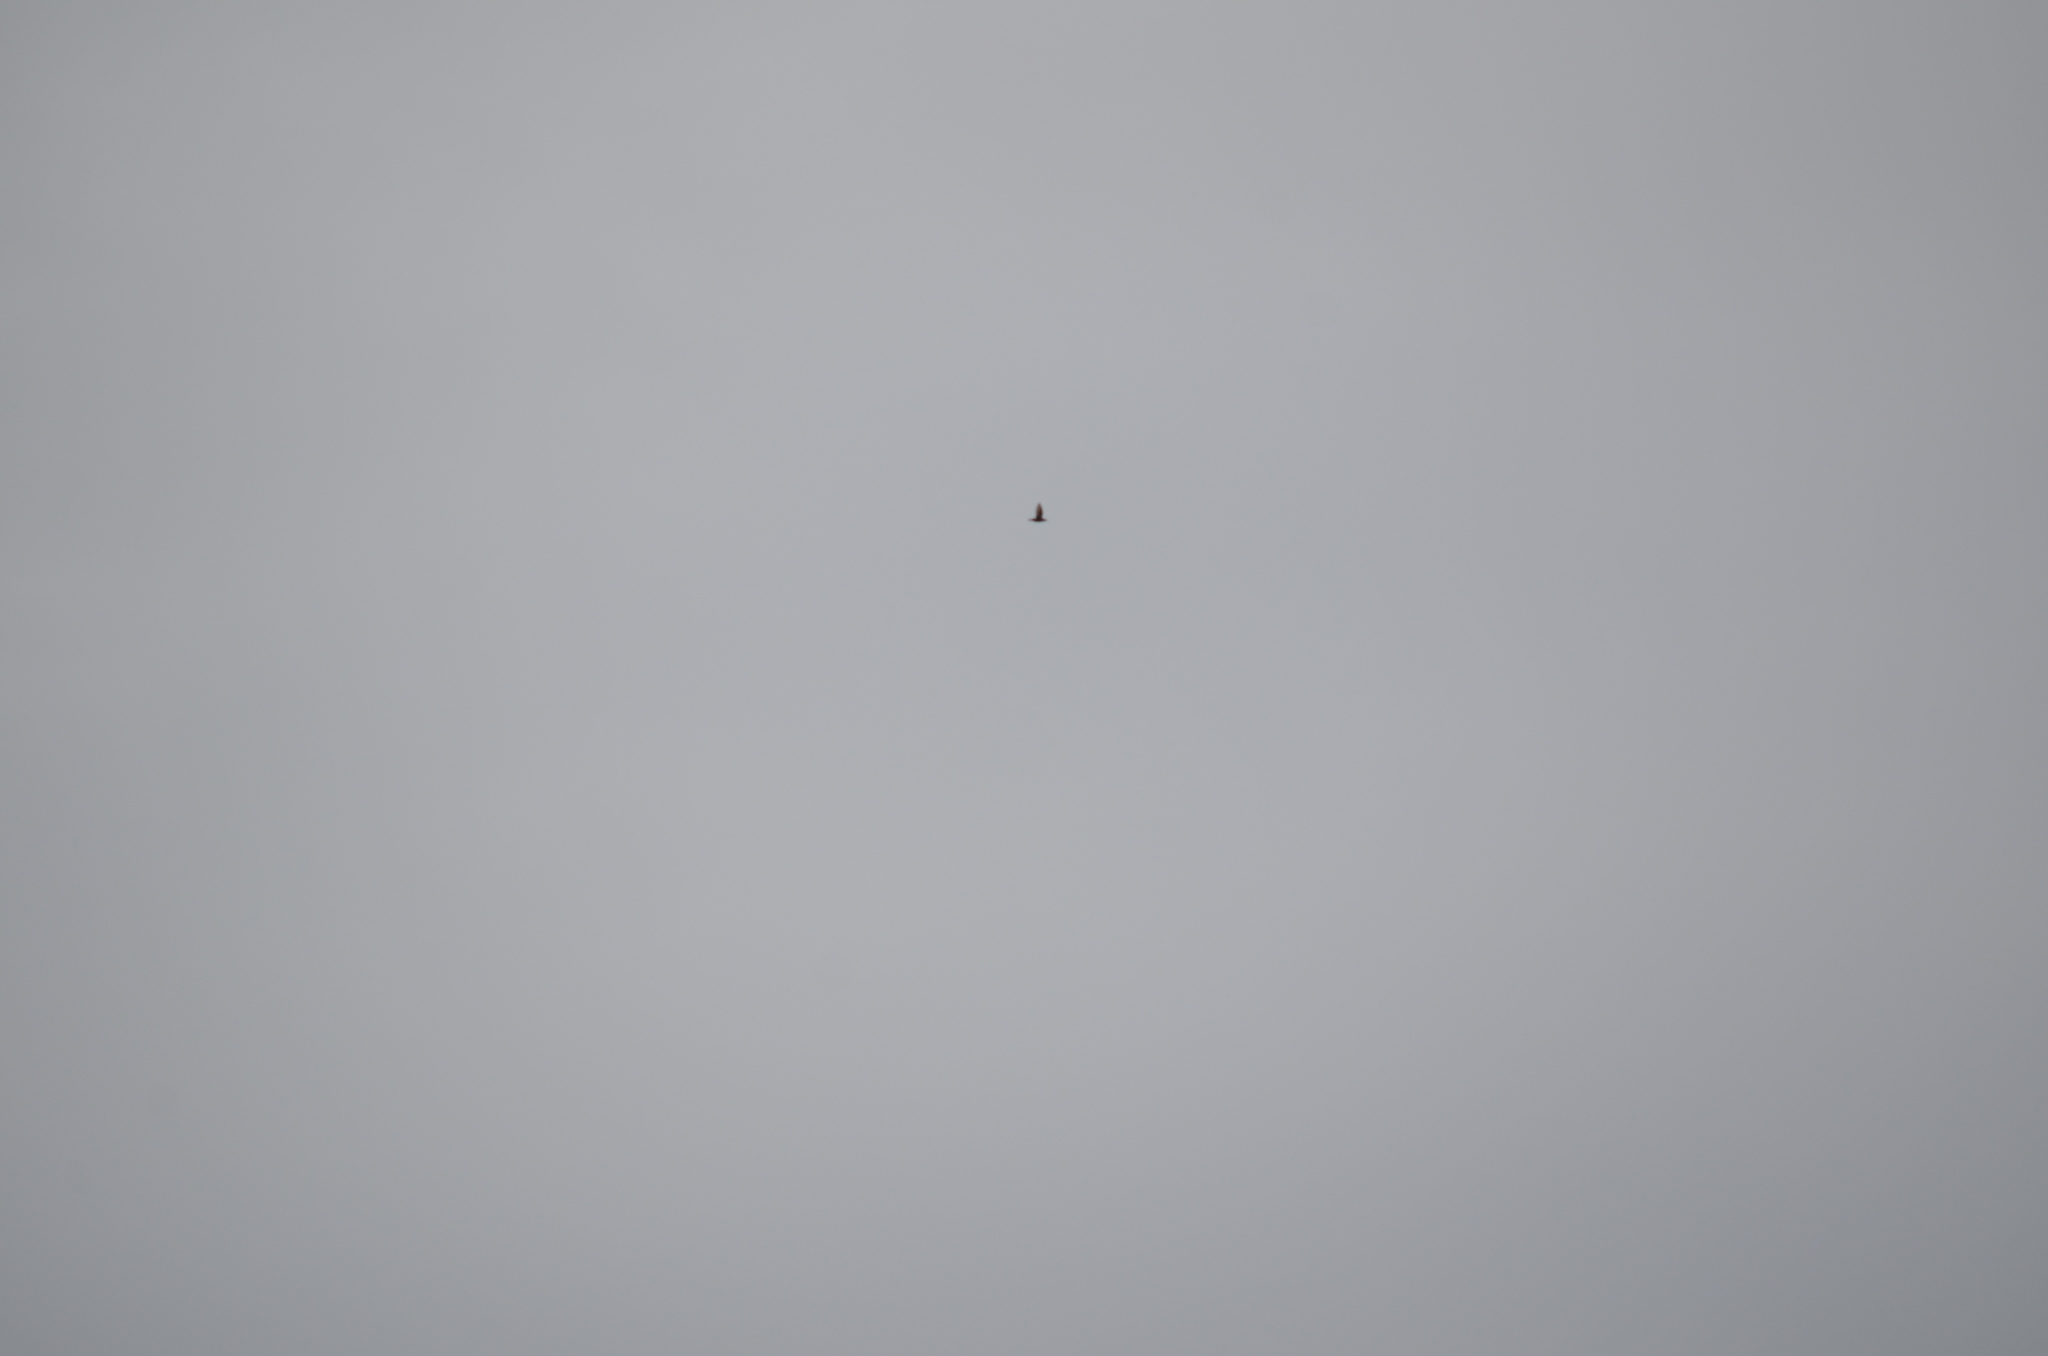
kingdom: Animalia
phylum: Chordata
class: Aves
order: Accipitriformes
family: Cathartidae
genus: Cathartes
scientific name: Cathartes aura
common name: Turkey vulture
